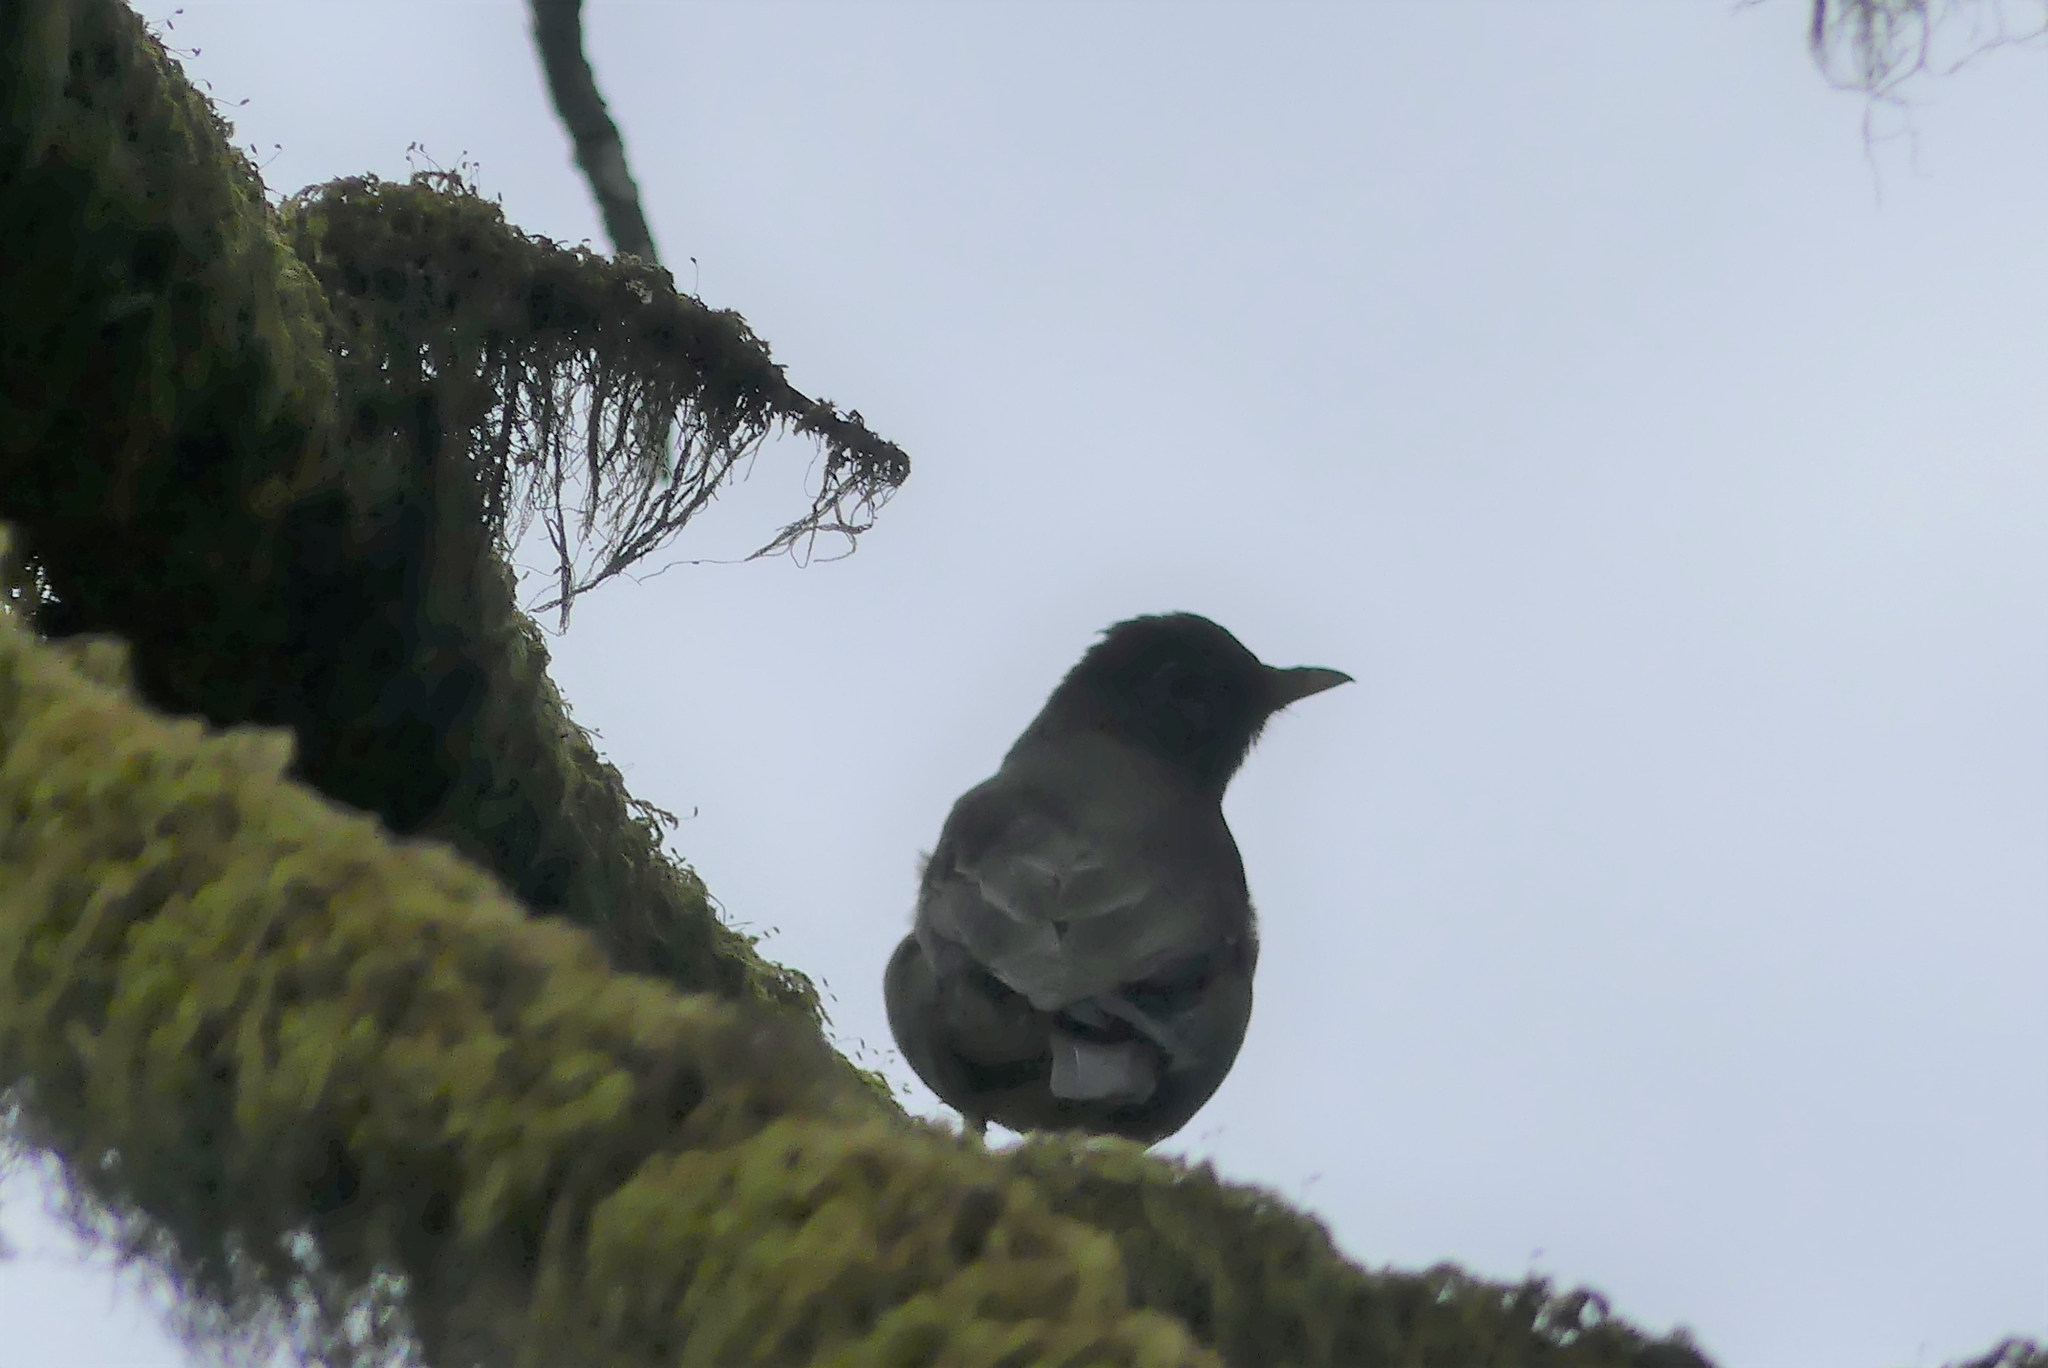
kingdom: Animalia
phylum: Chordata
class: Aves
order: Passeriformes
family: Turdidae
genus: Turdus
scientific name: Turdus migratorius
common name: American robin
